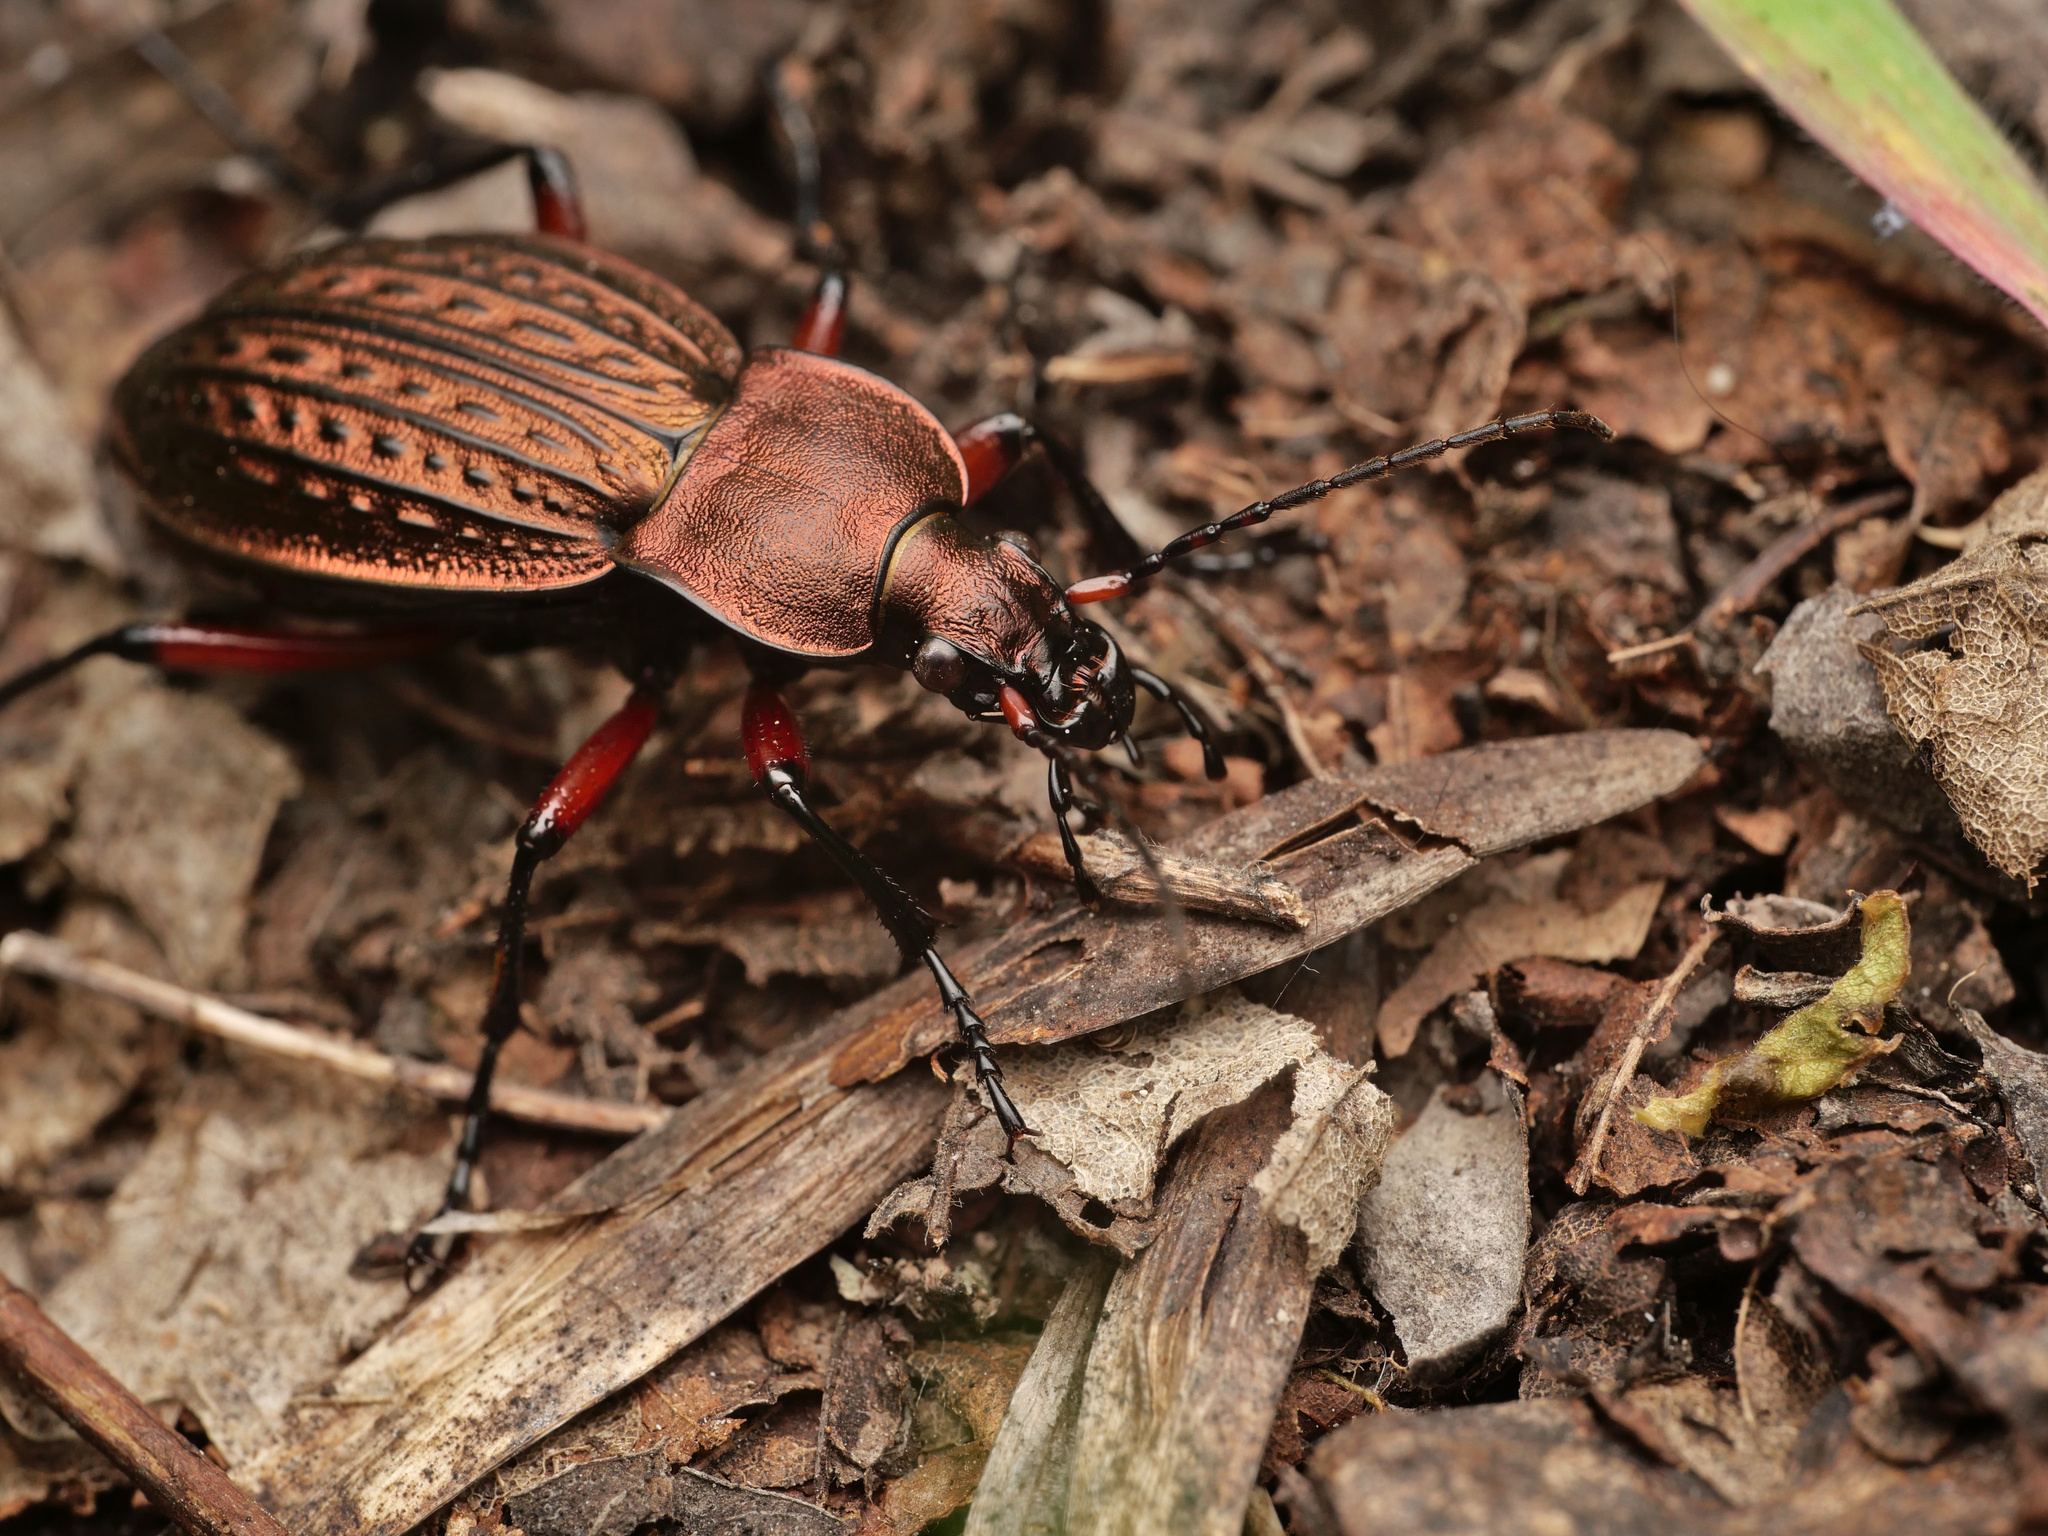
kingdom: Animalia
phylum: Arthropoda
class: Insecta
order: Coleoptera
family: Carabidae
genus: Carabus
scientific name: Carabus cancellatus
